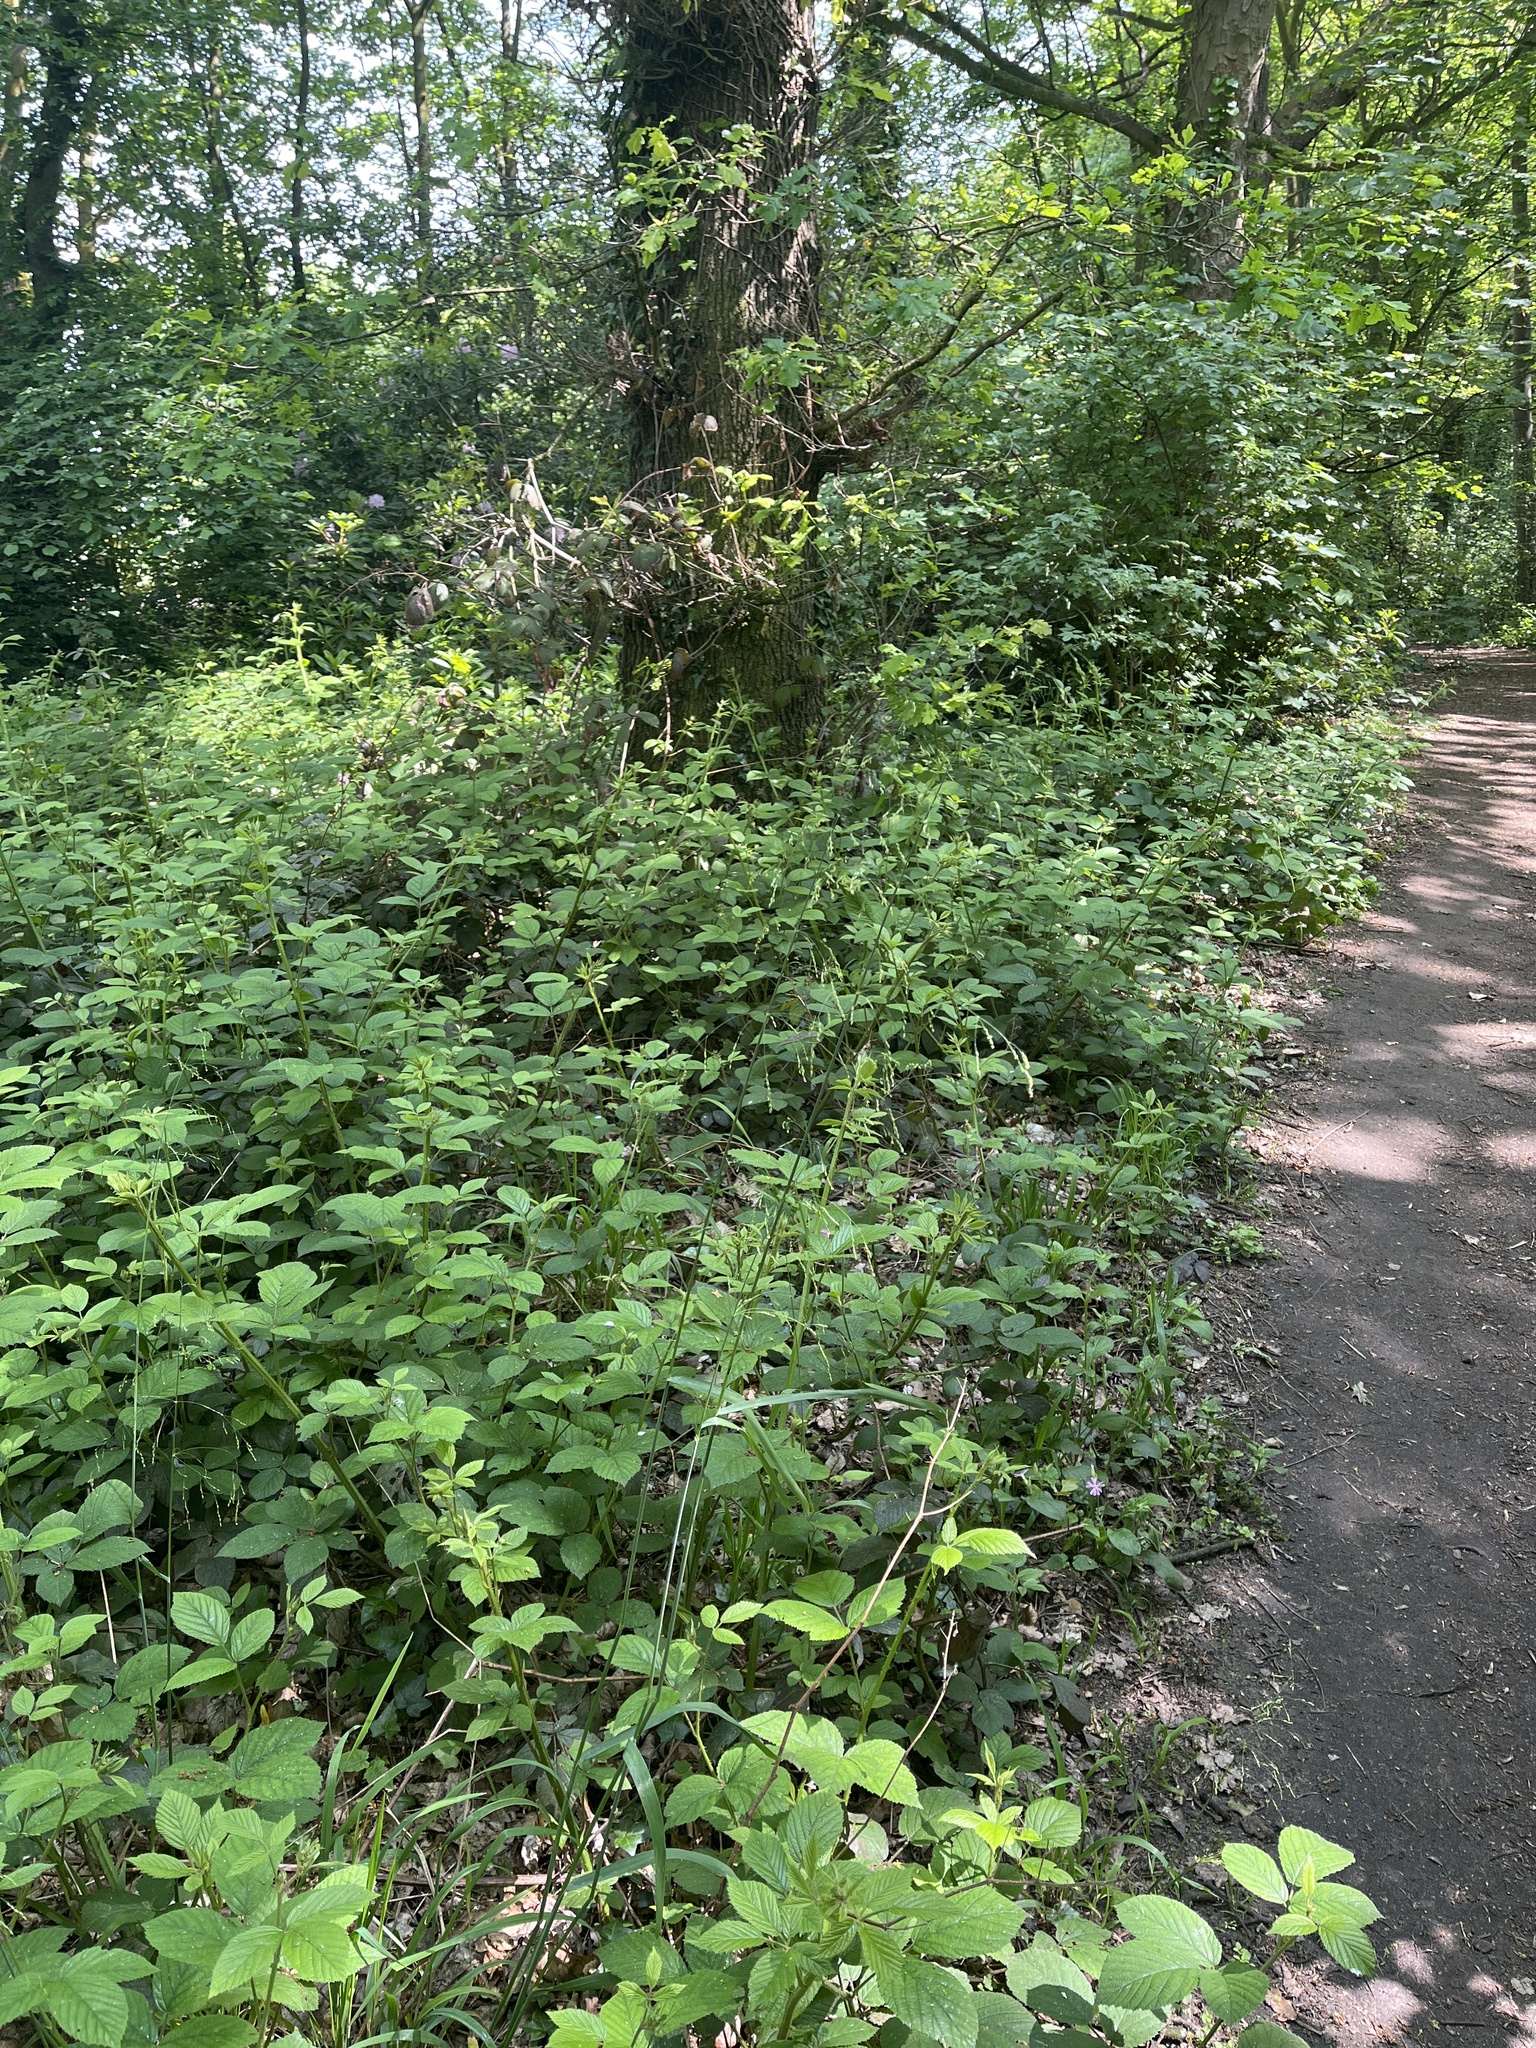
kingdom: Plantae
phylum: Tracheophyta
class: Liliopsida
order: Poales
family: Poaceae
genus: Milium
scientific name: Milium effusum
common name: Wood millet
